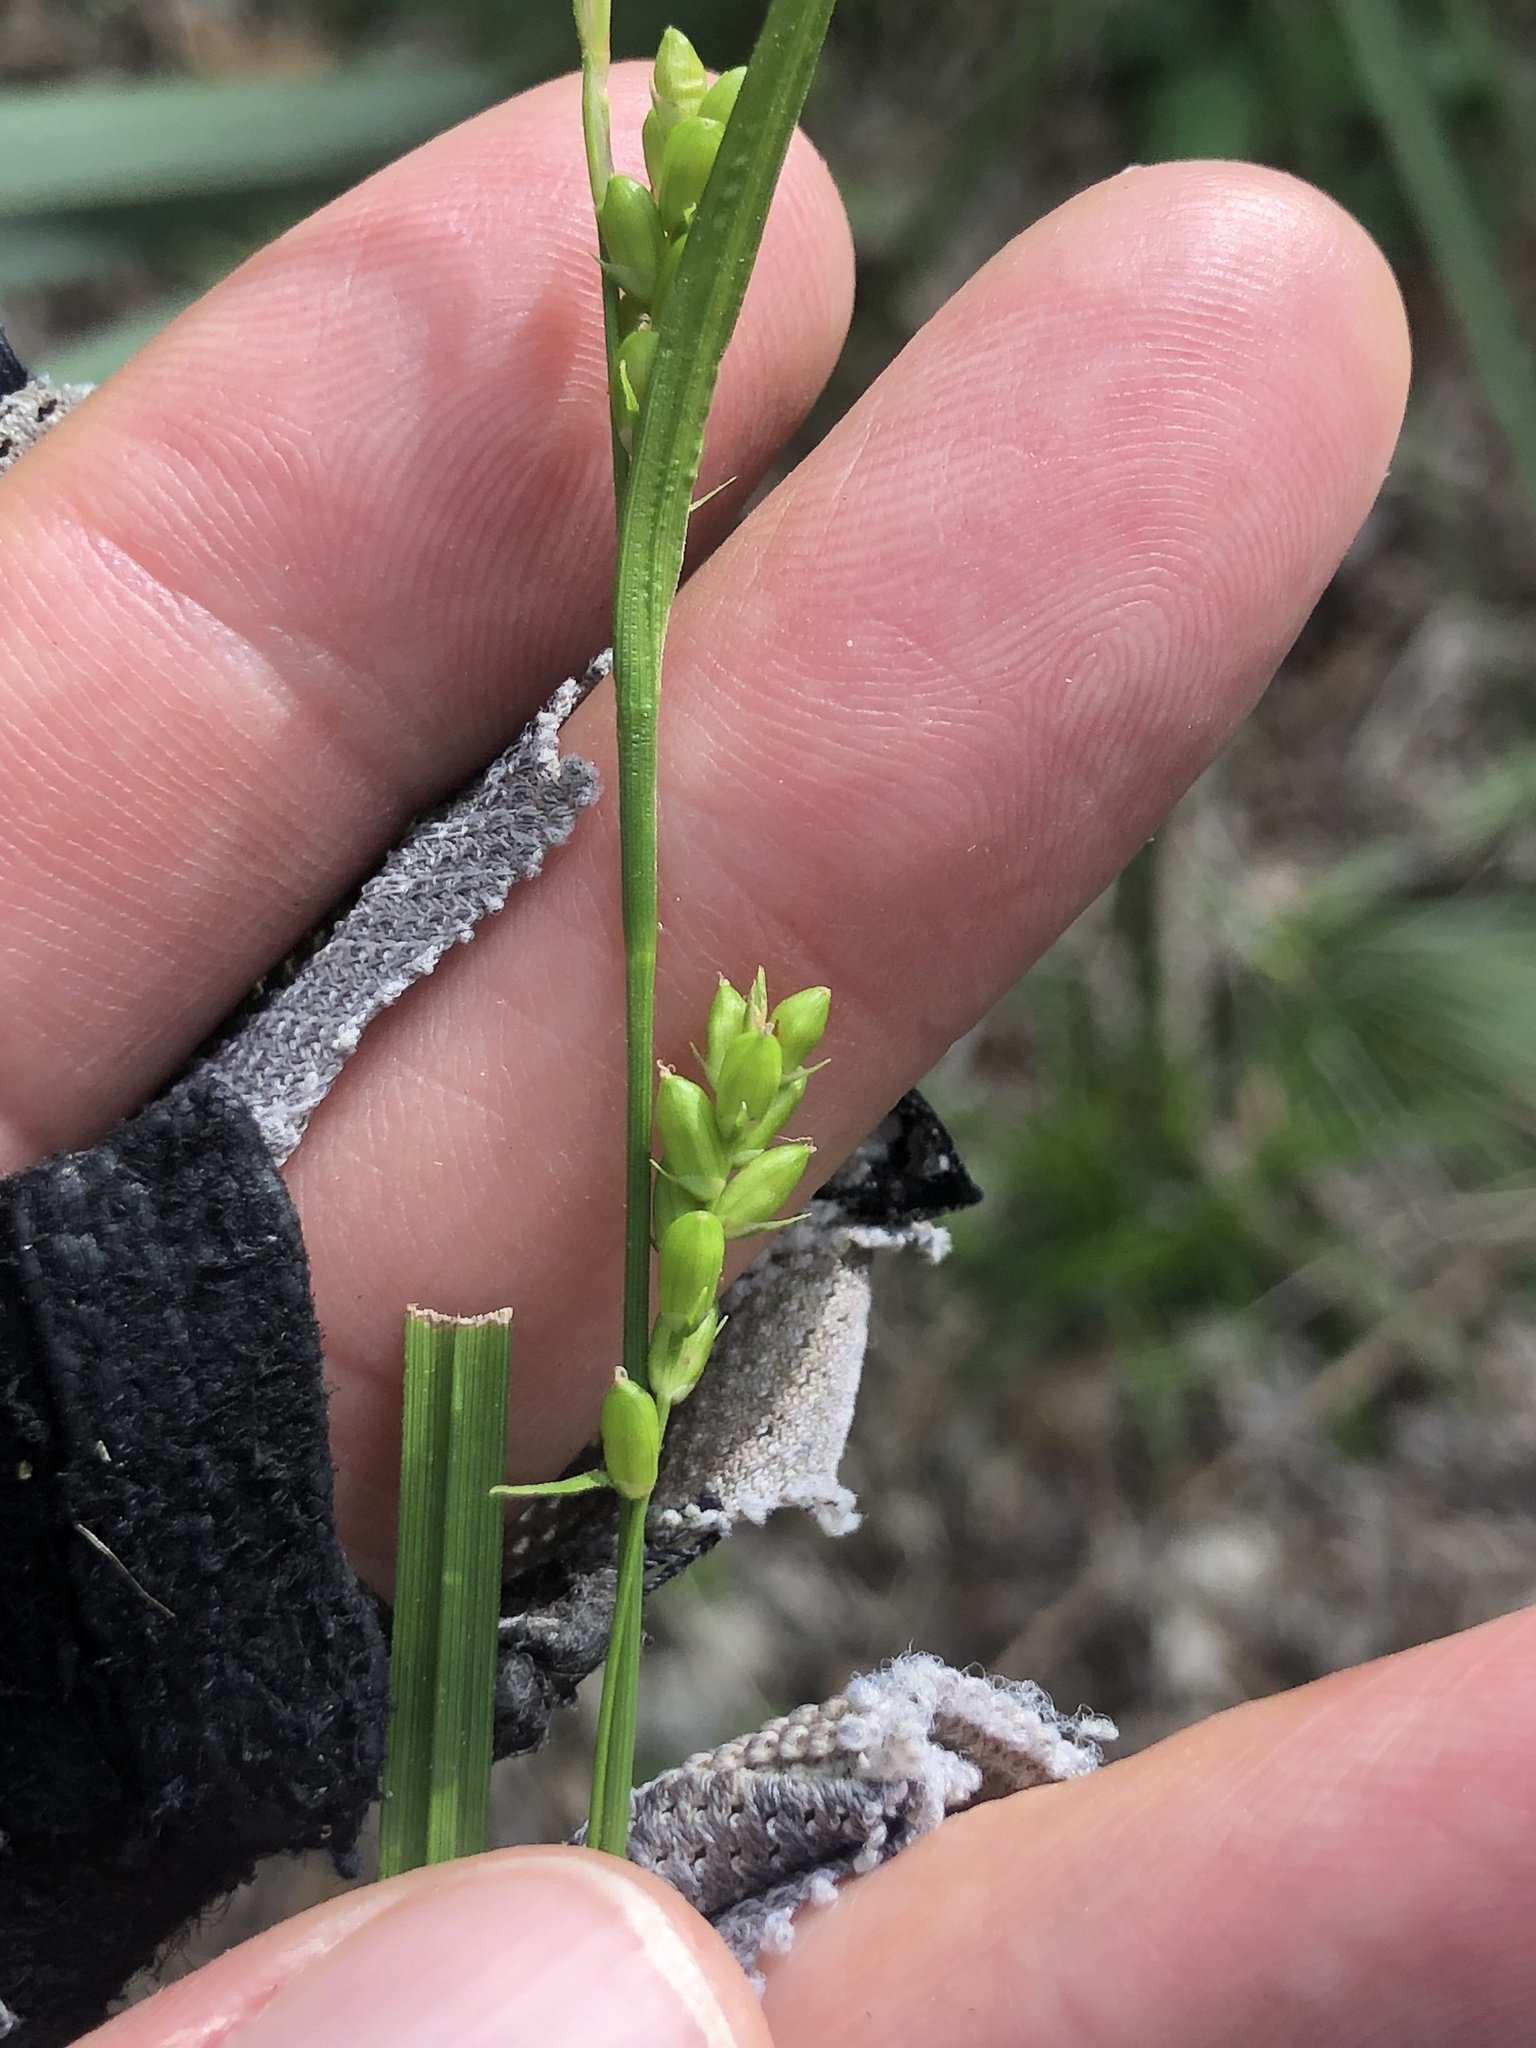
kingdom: Plantae
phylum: Tracheophyta
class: Liliopsida
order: Poales
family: Cyperaceae
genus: Carex
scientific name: Carex corrugata
